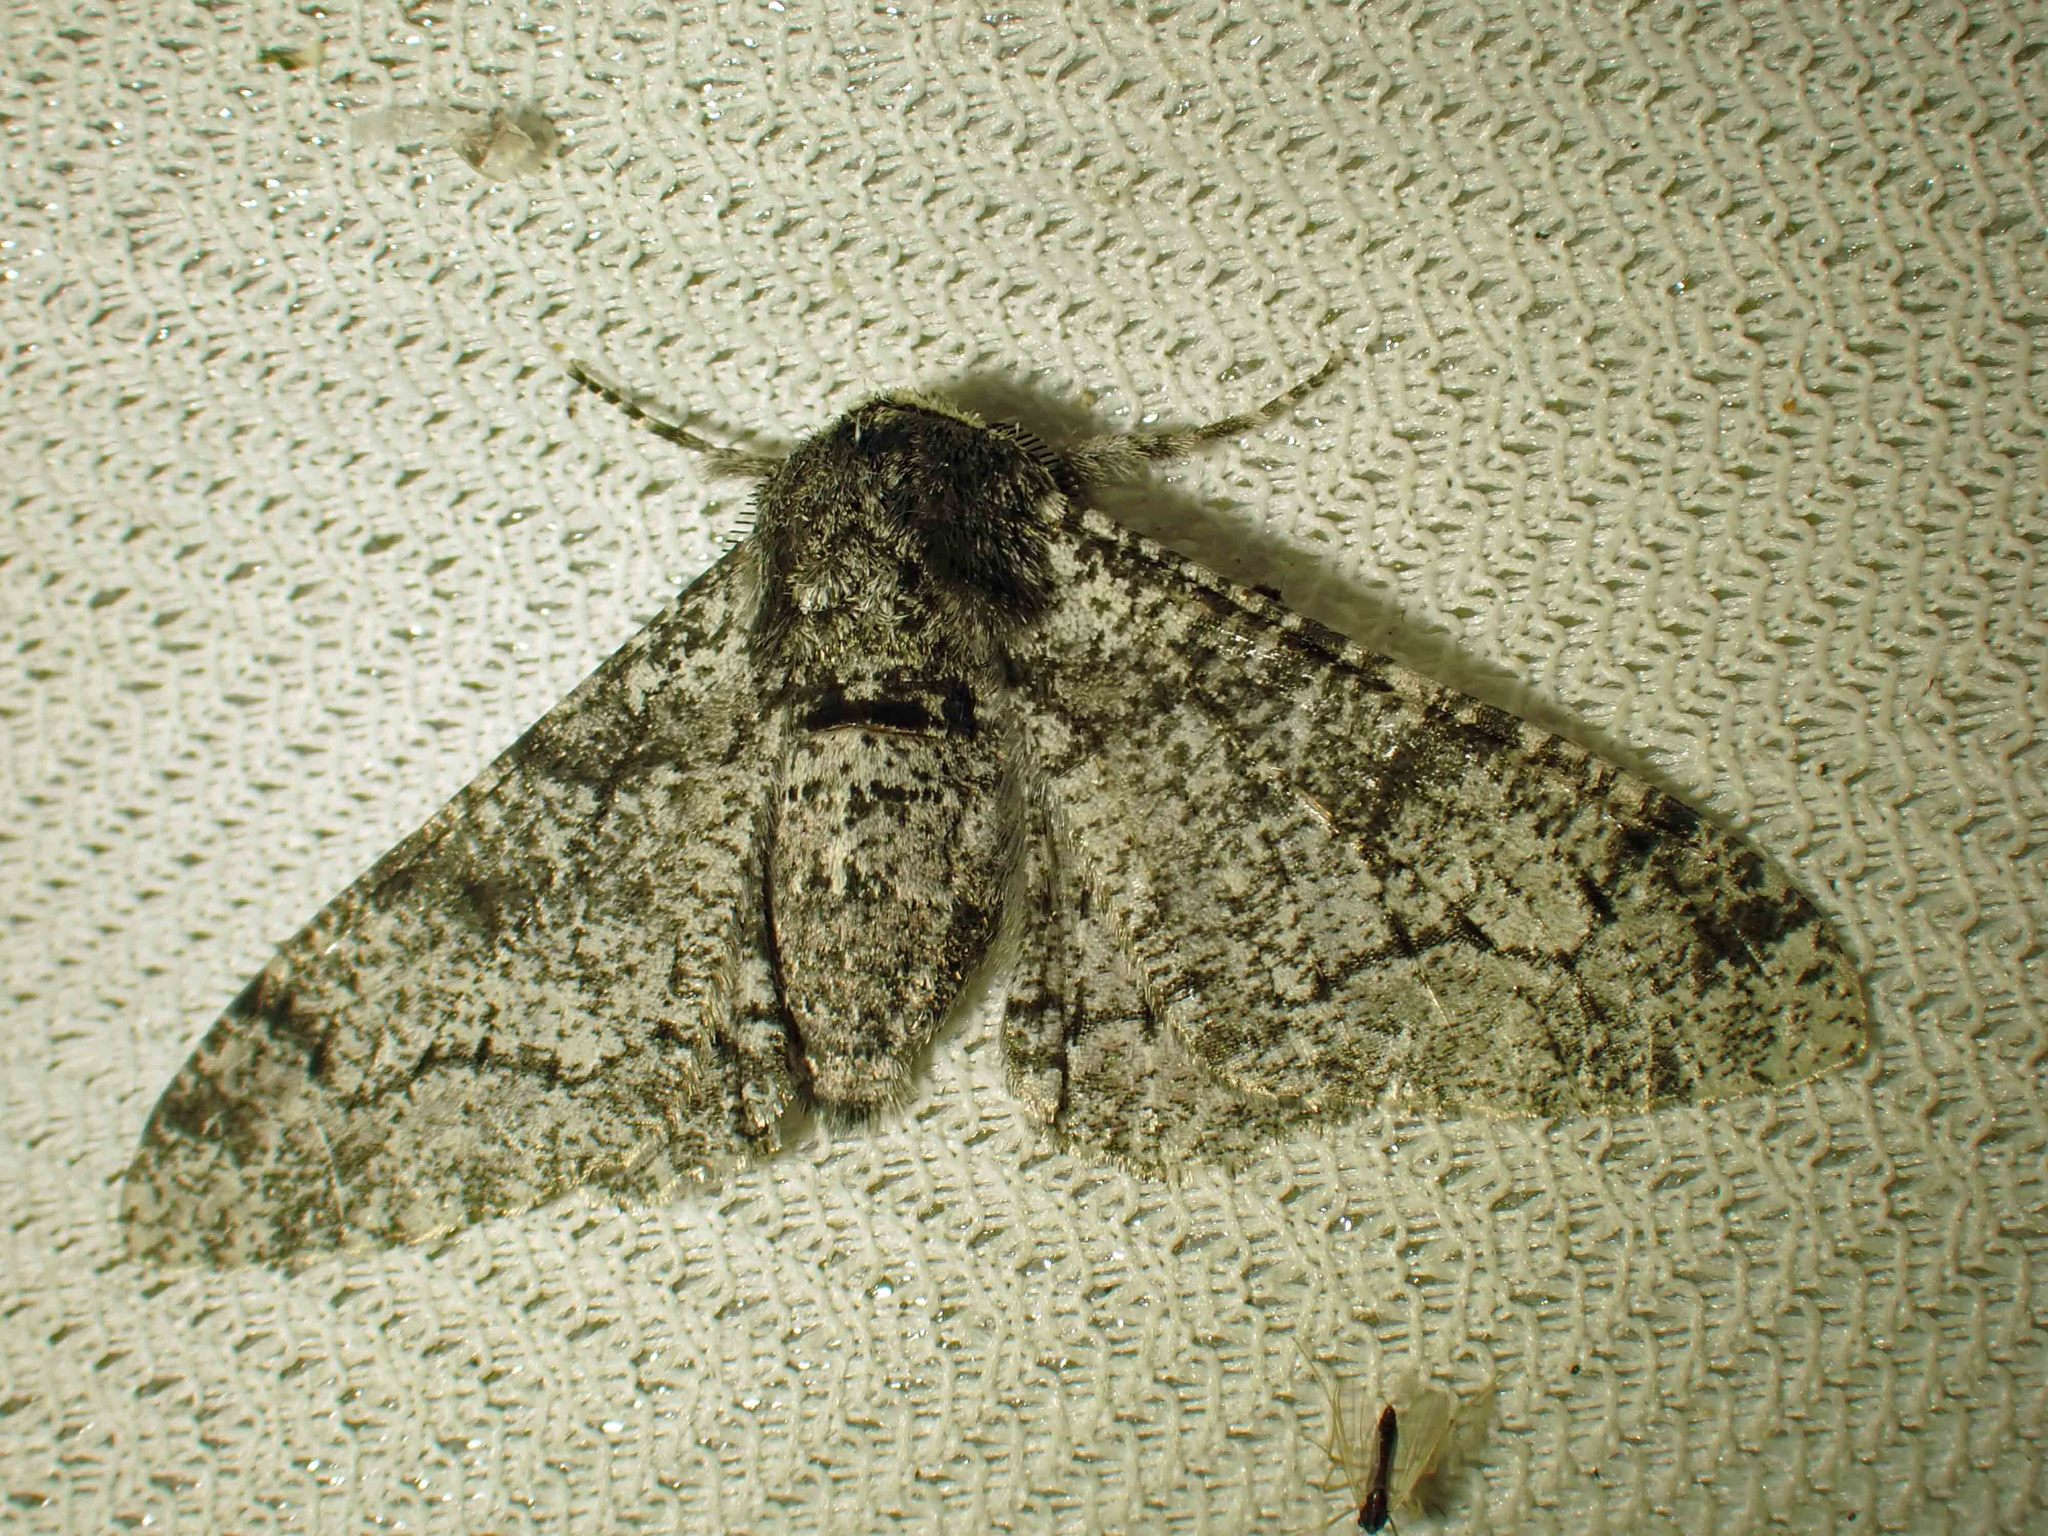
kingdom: Animalia
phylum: Arthropoda
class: Insecta
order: Lepidoptera
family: Geometridae
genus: Biston
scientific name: Biston betularia
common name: Peppered moth
